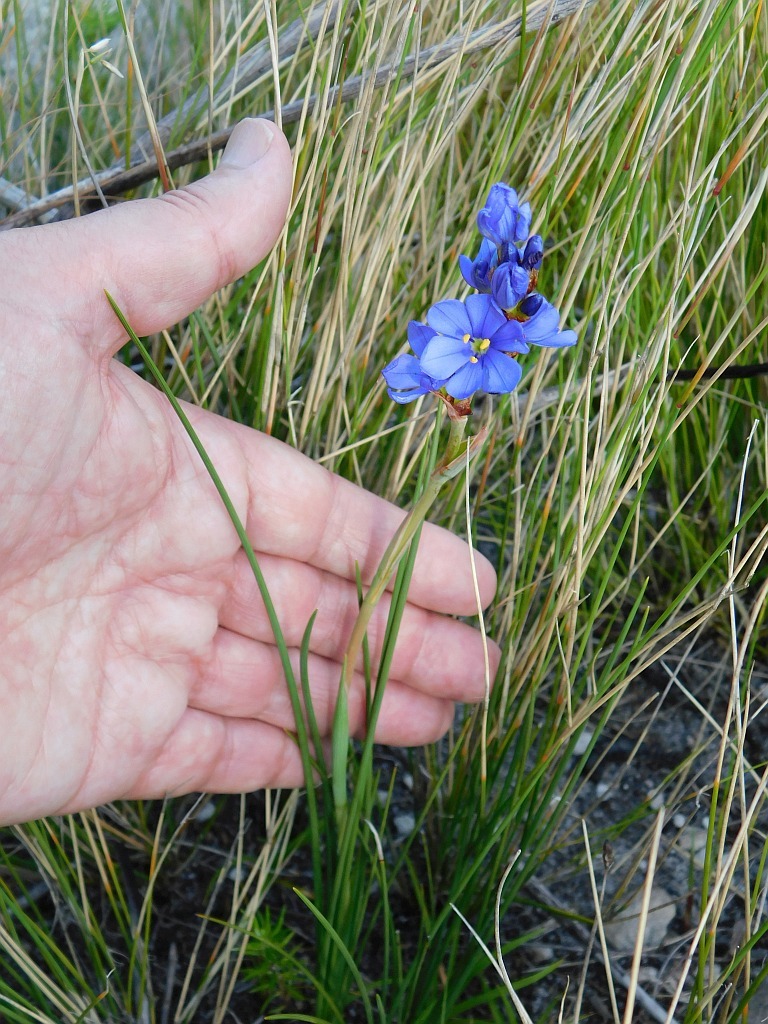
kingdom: Plantae
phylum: Tracheophyta
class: Liliopsida
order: Asparagales
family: Iridaceae
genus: Aristea
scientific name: Aristea juncifolia
